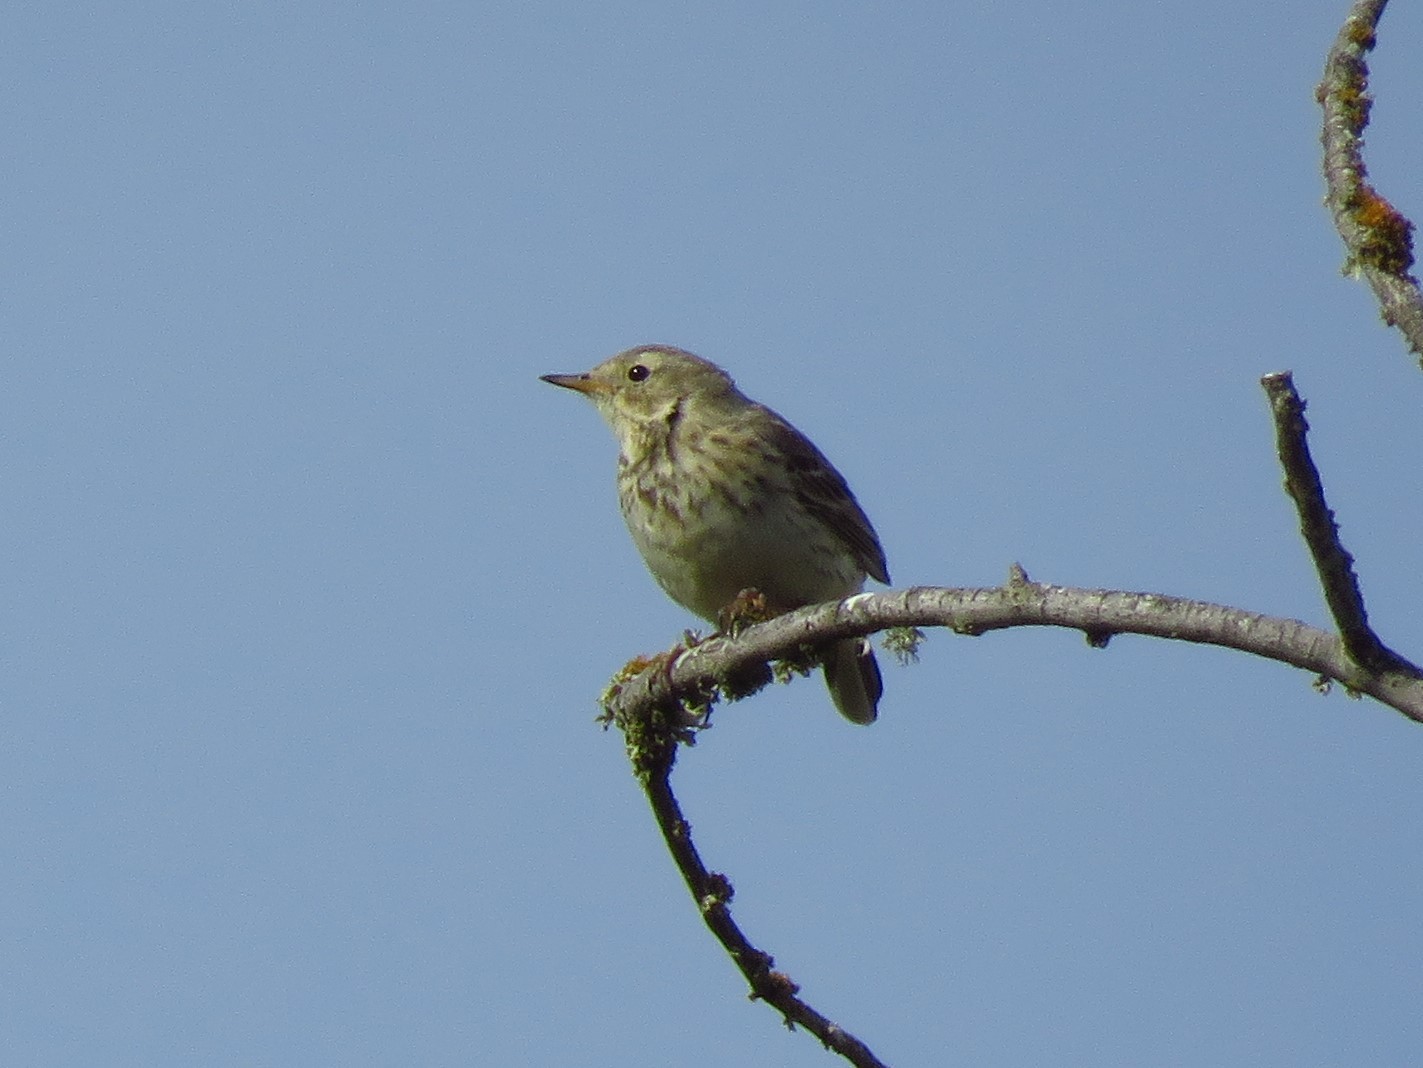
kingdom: Animalia
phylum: Chordata
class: Aves
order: Passeriformes
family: Motacillidae
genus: Anthus
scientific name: Anthus rubescens
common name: Buff-bellied pipit
